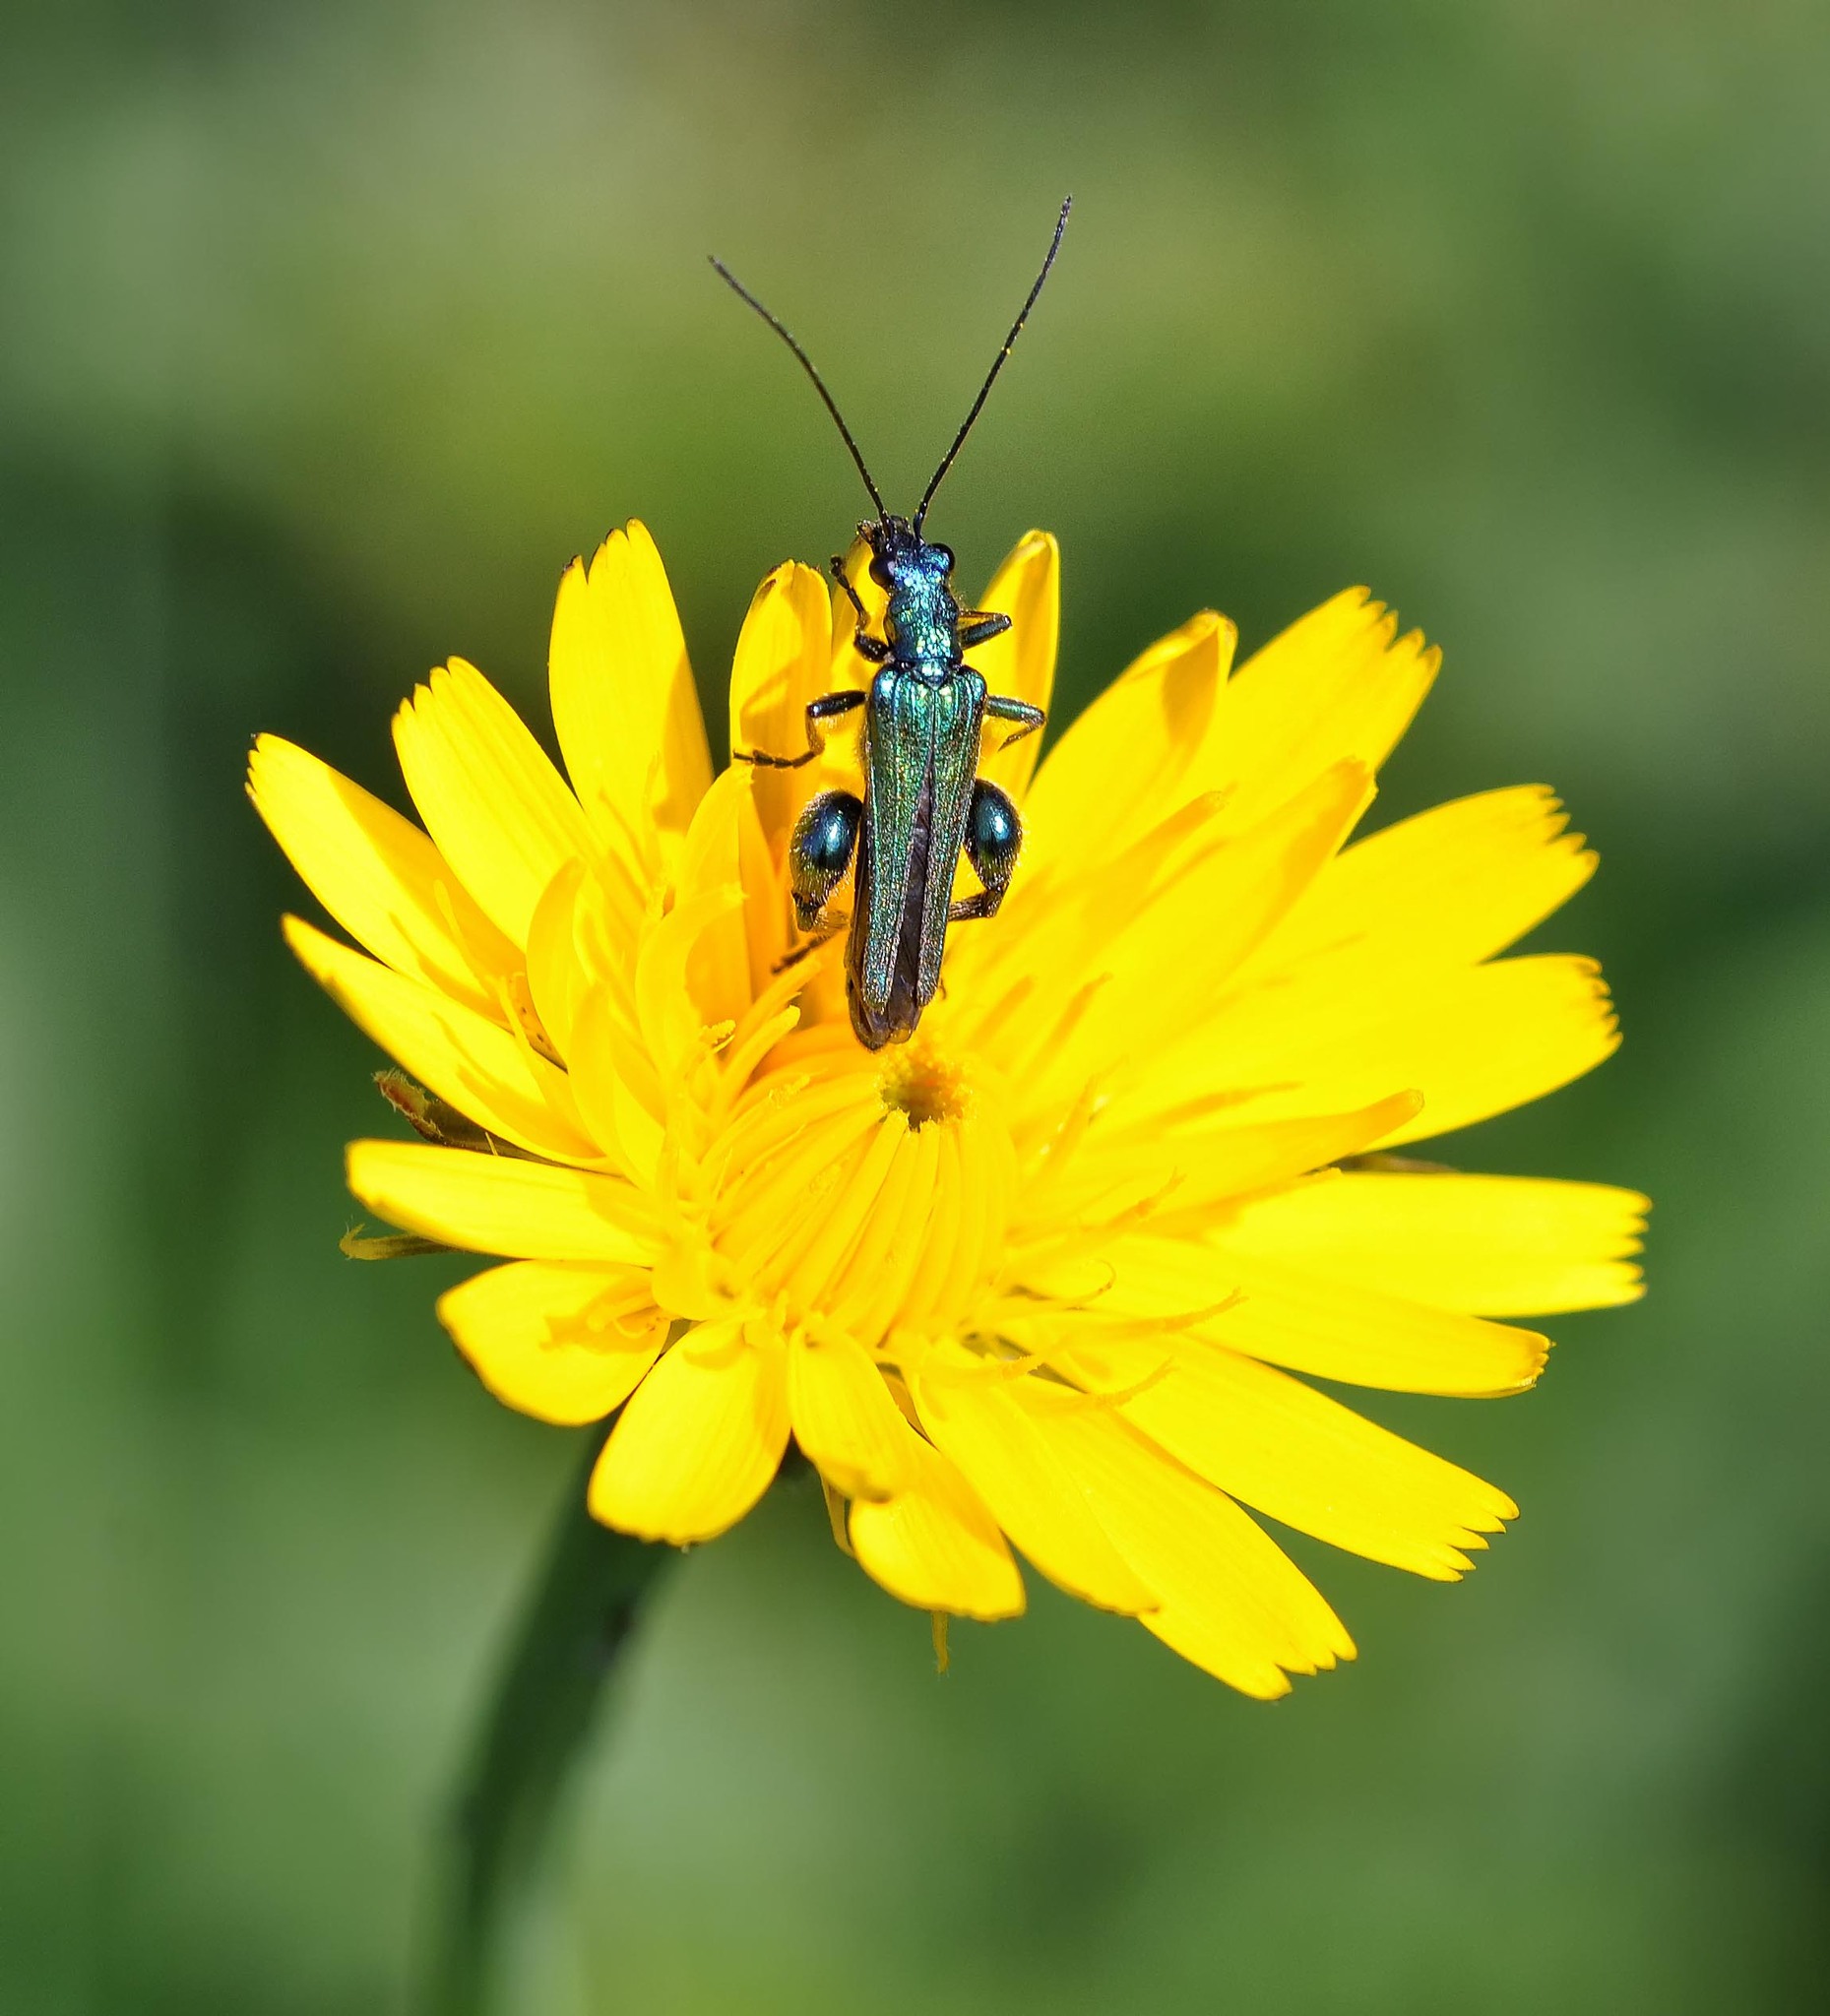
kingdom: Animalia
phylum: Arthropoda
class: Insecta
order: Coleoptera
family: Oedemeridae
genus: Oedemera
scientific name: Oedemera nobilis
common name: Swollen-thighed beetle
